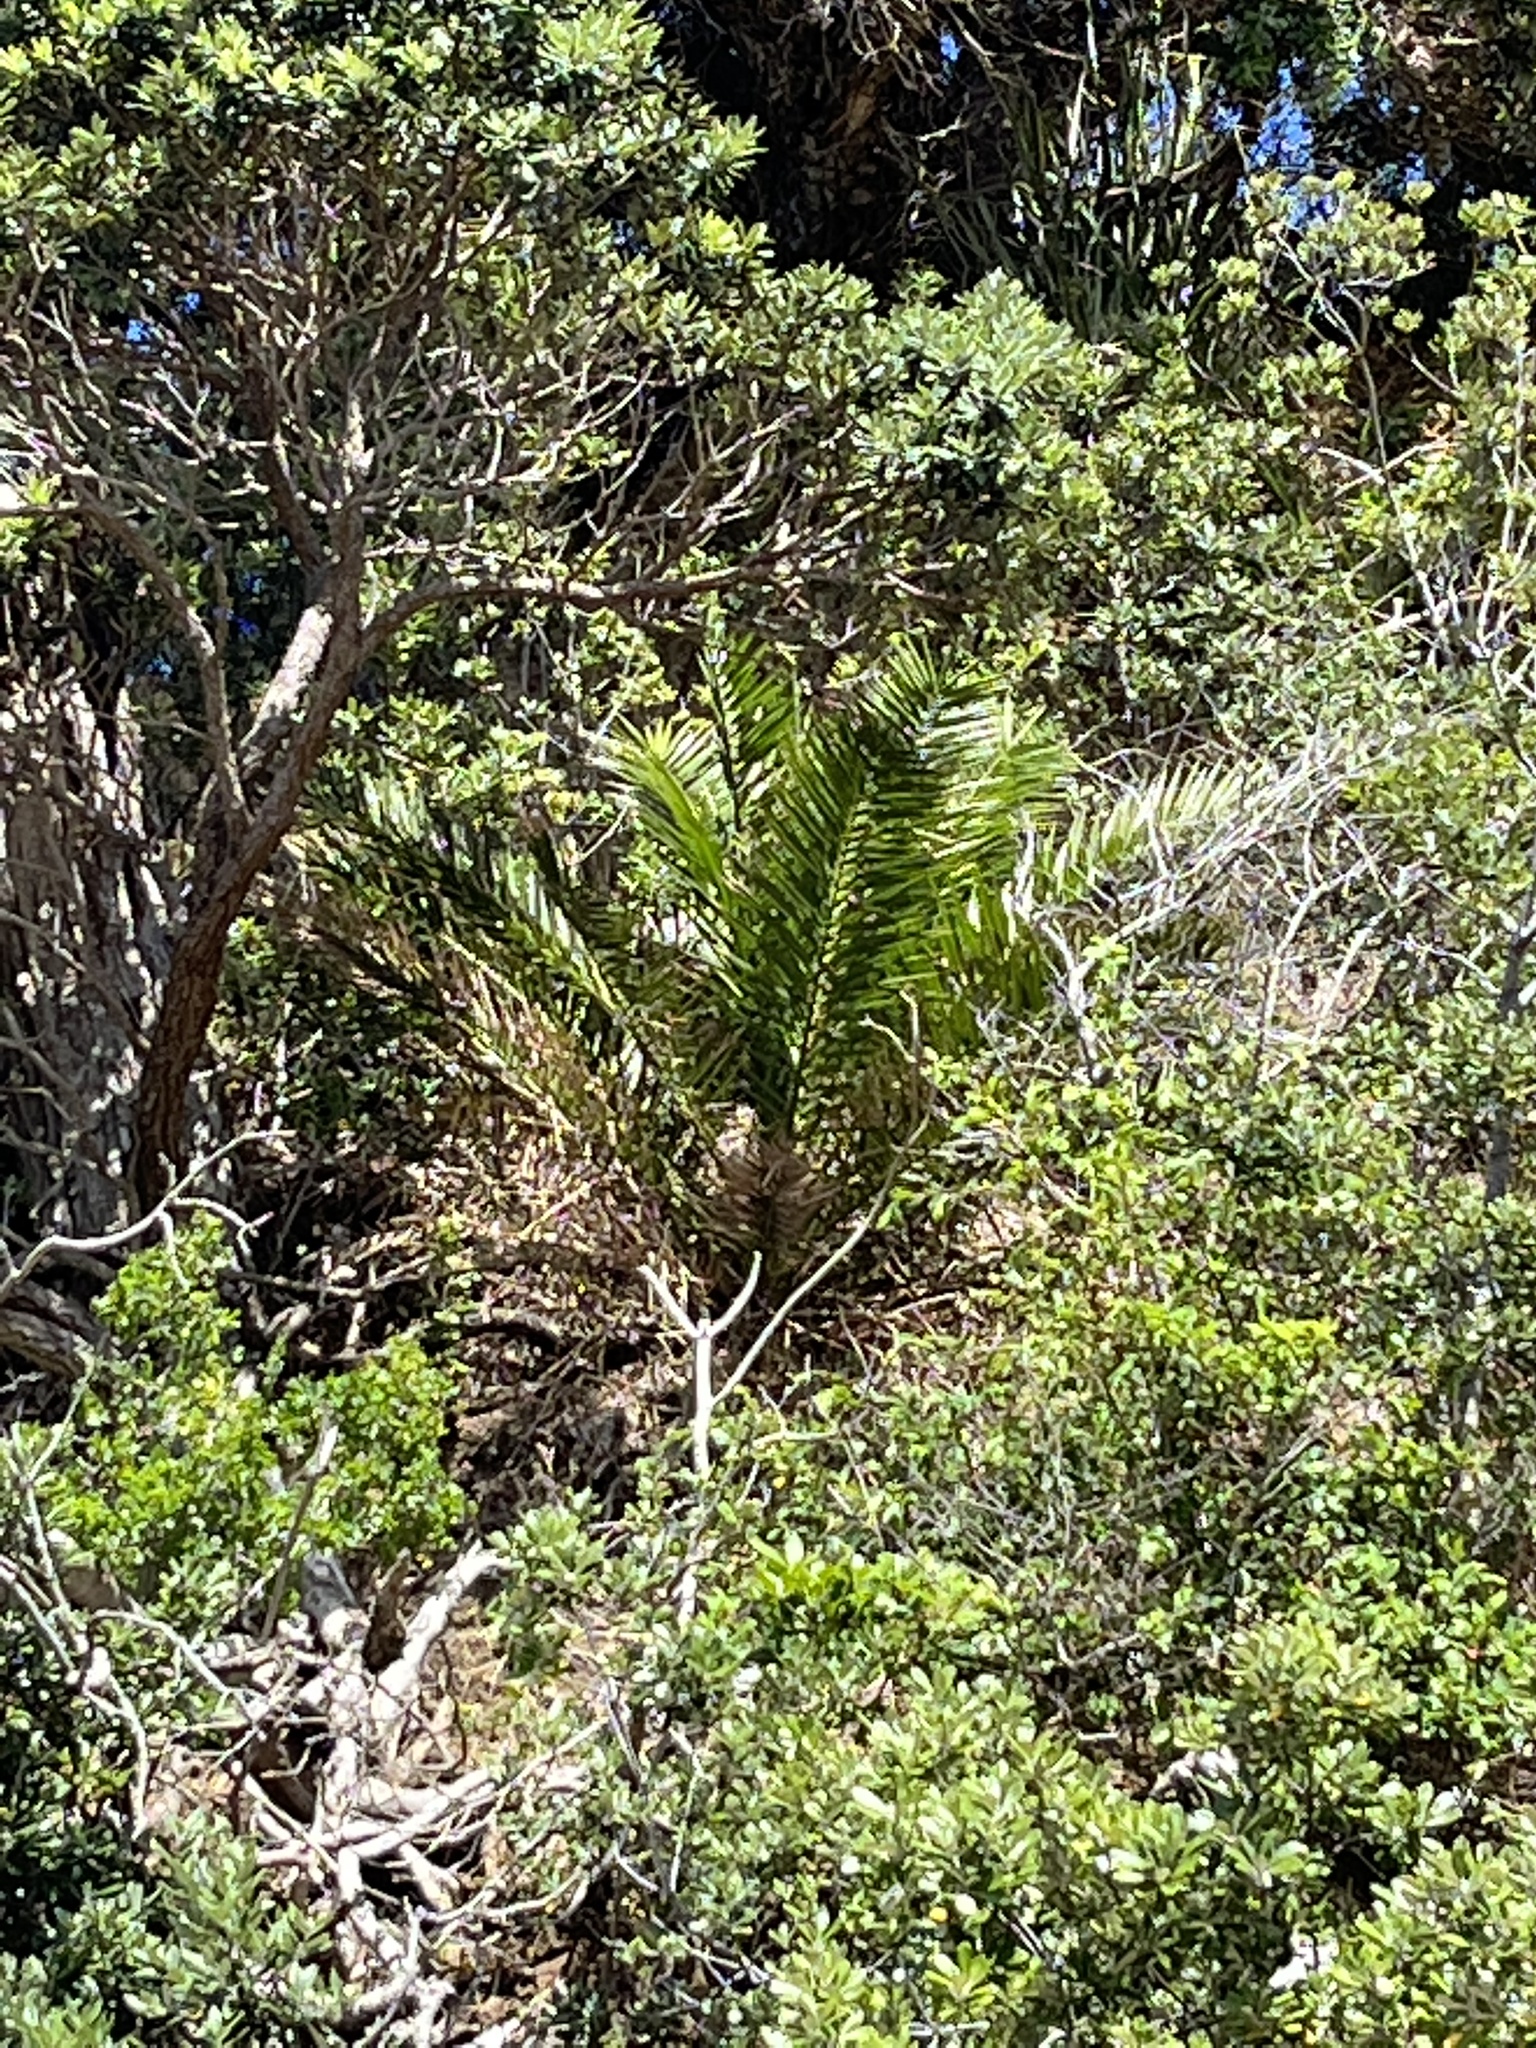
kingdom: Plantae
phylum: Tracheophyta
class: Liliopsida
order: Arecales
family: Arecaceae
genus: Phoenix
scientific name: Phoenix canariensis
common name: Canary island date palm
